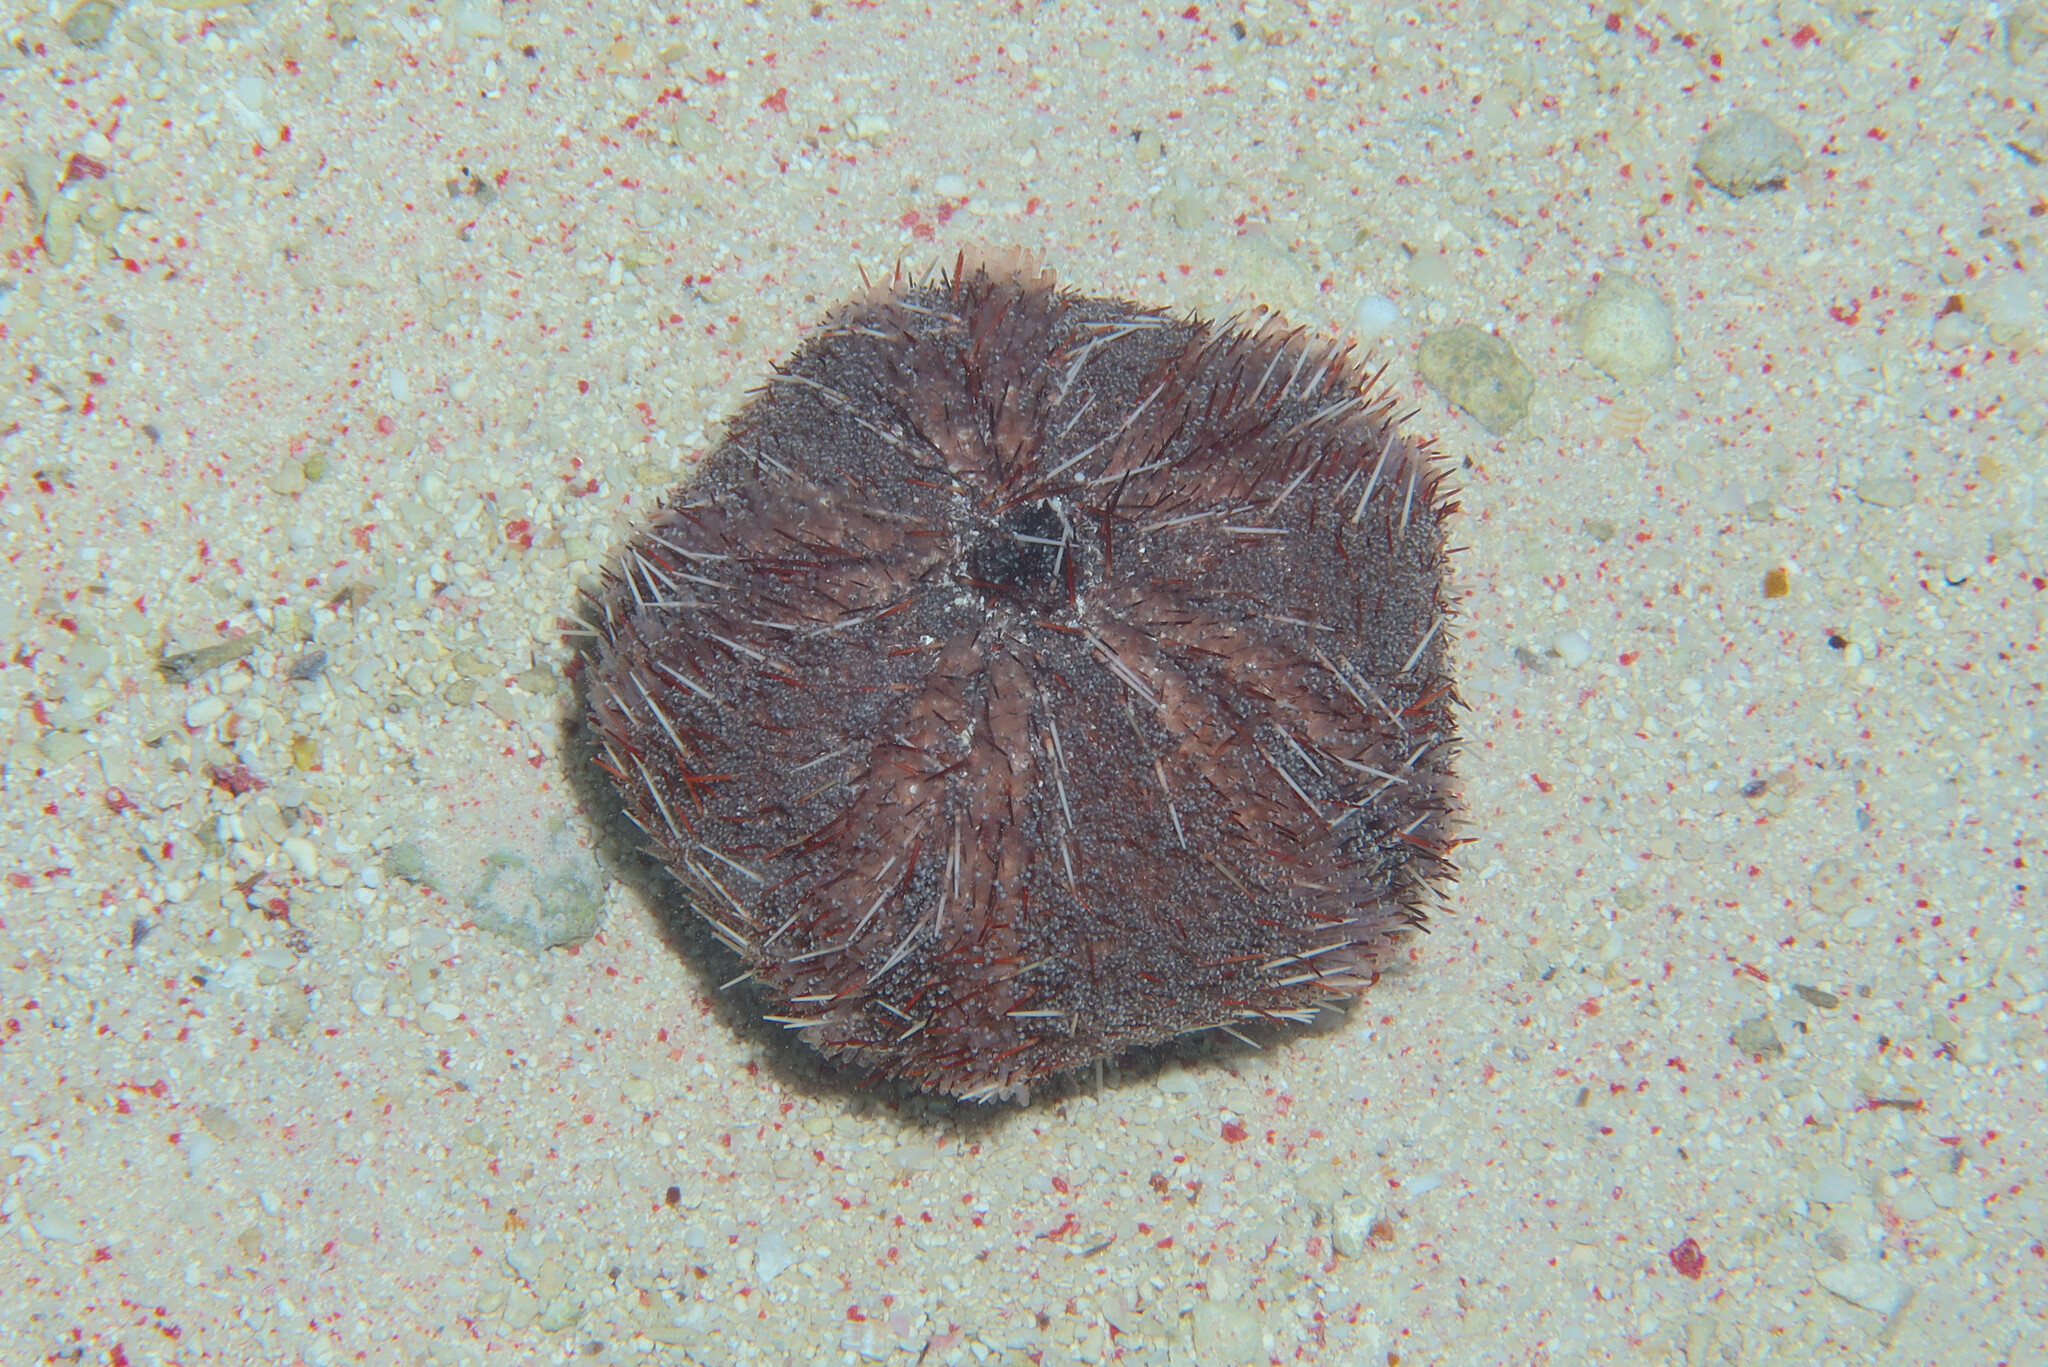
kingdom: Animalia
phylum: Echinodermata
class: Echinoidea
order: Camarodonta
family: Toxopneustidae
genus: Tripneustes
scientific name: Tripneustes gratilla
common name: Bischofsmützenseeigel
